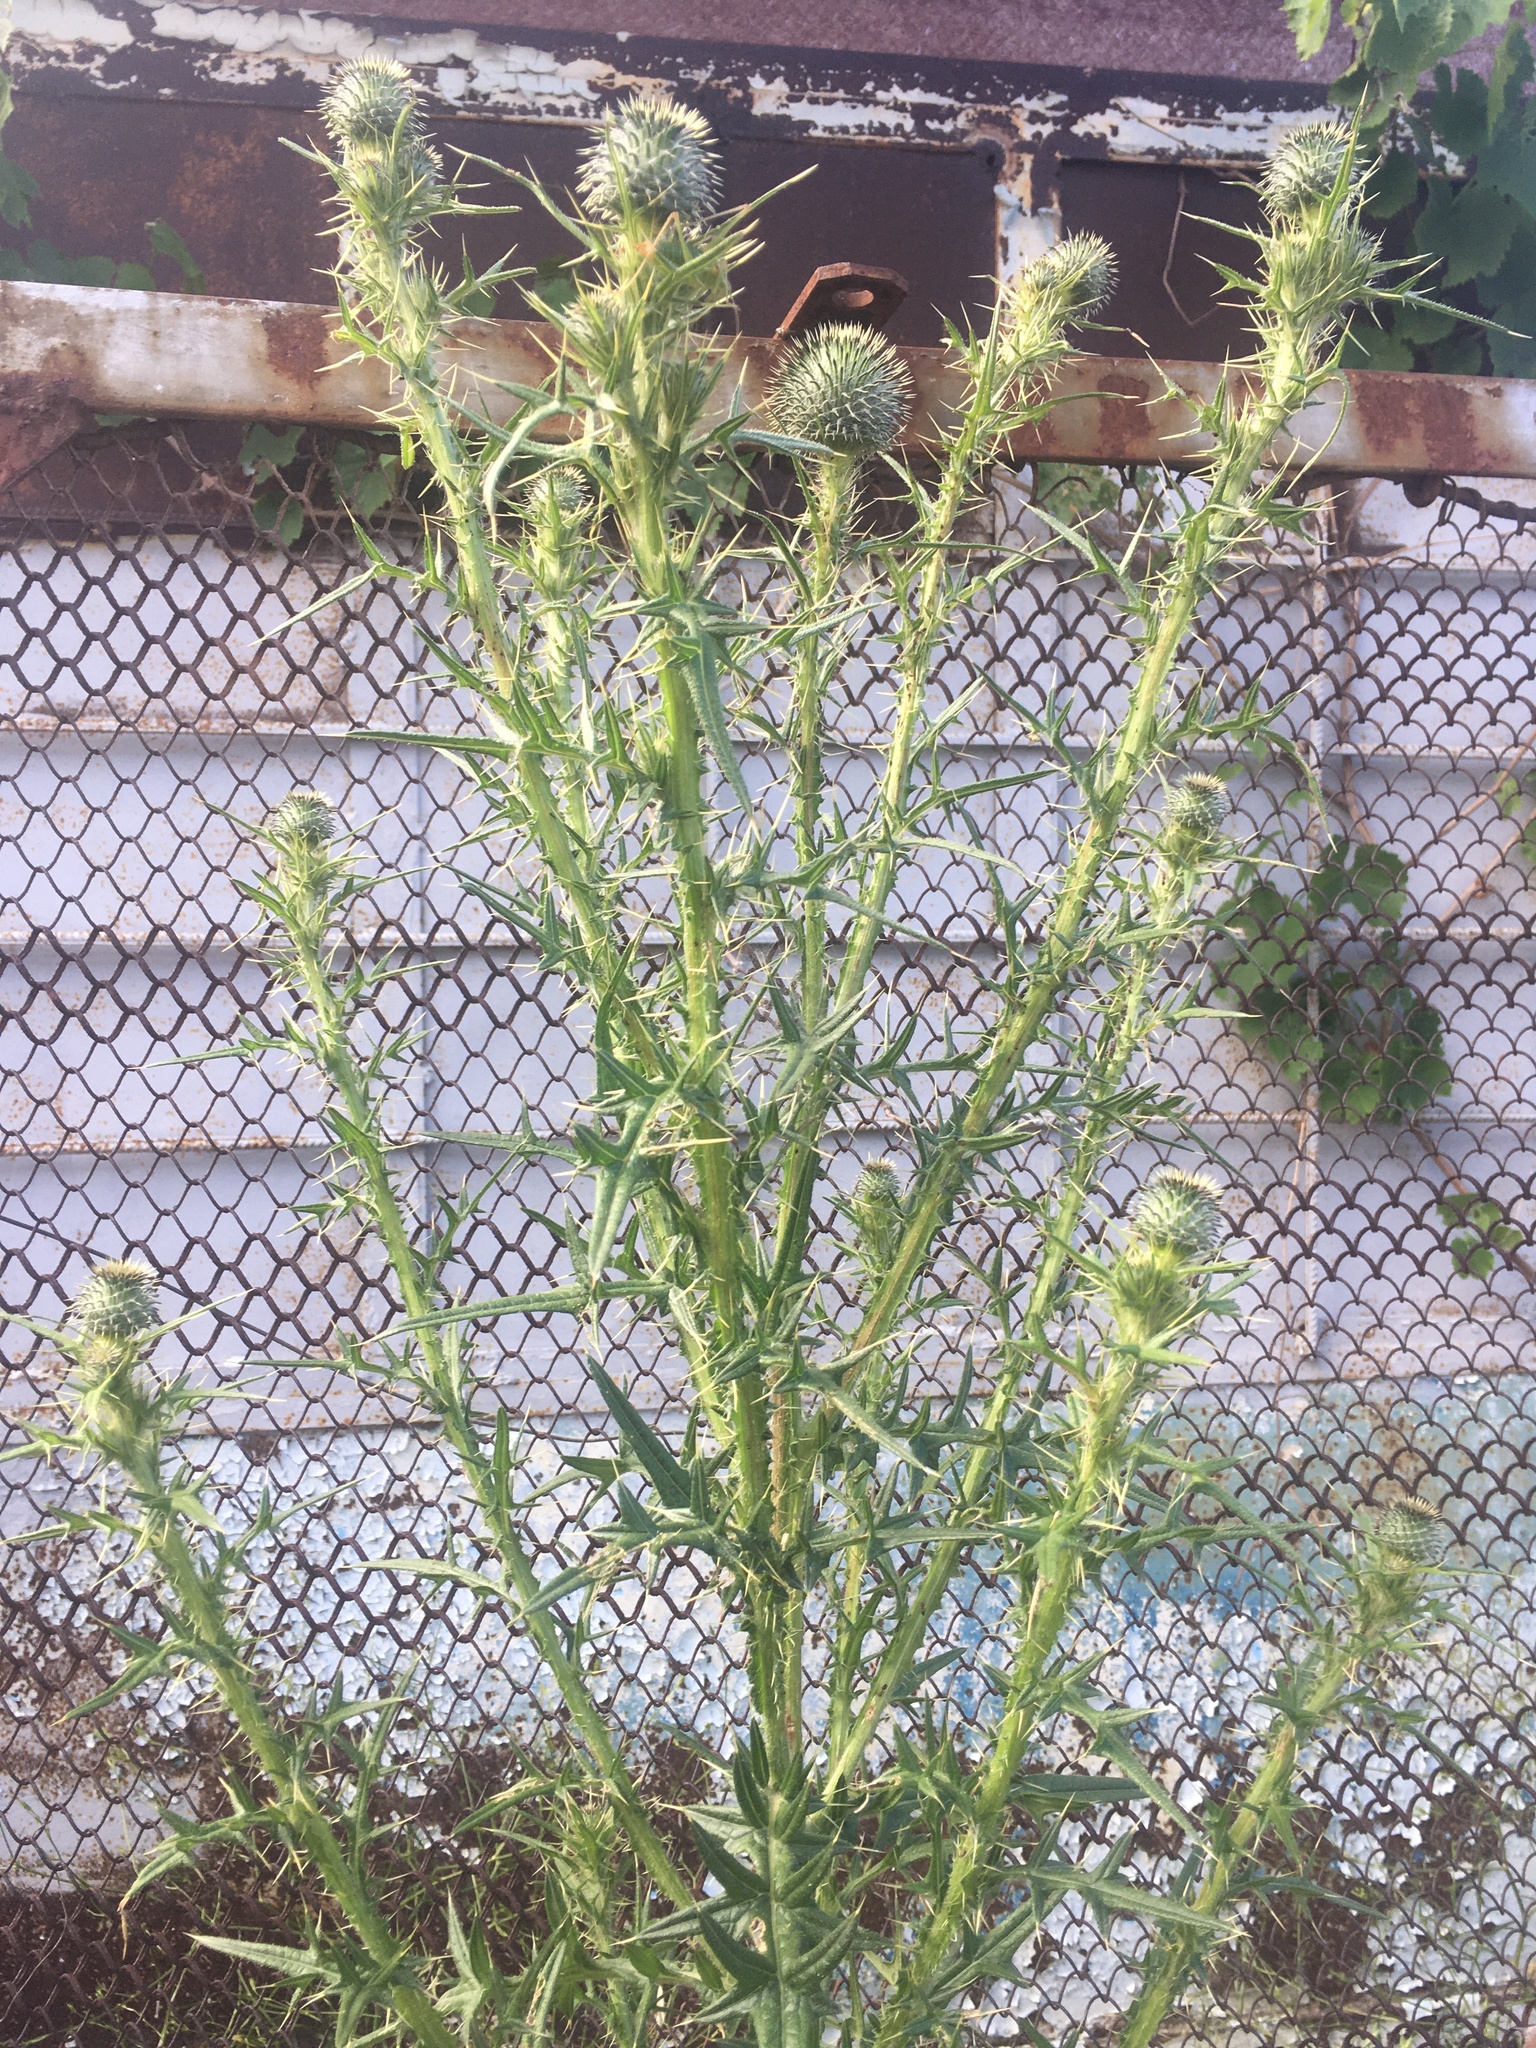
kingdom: Plantae
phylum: Tracheophyta
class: Magnoliopsida
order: Asterales
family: Asteraceae
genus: Cirsium
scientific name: Cirsium vulgare
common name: Bull thistle
